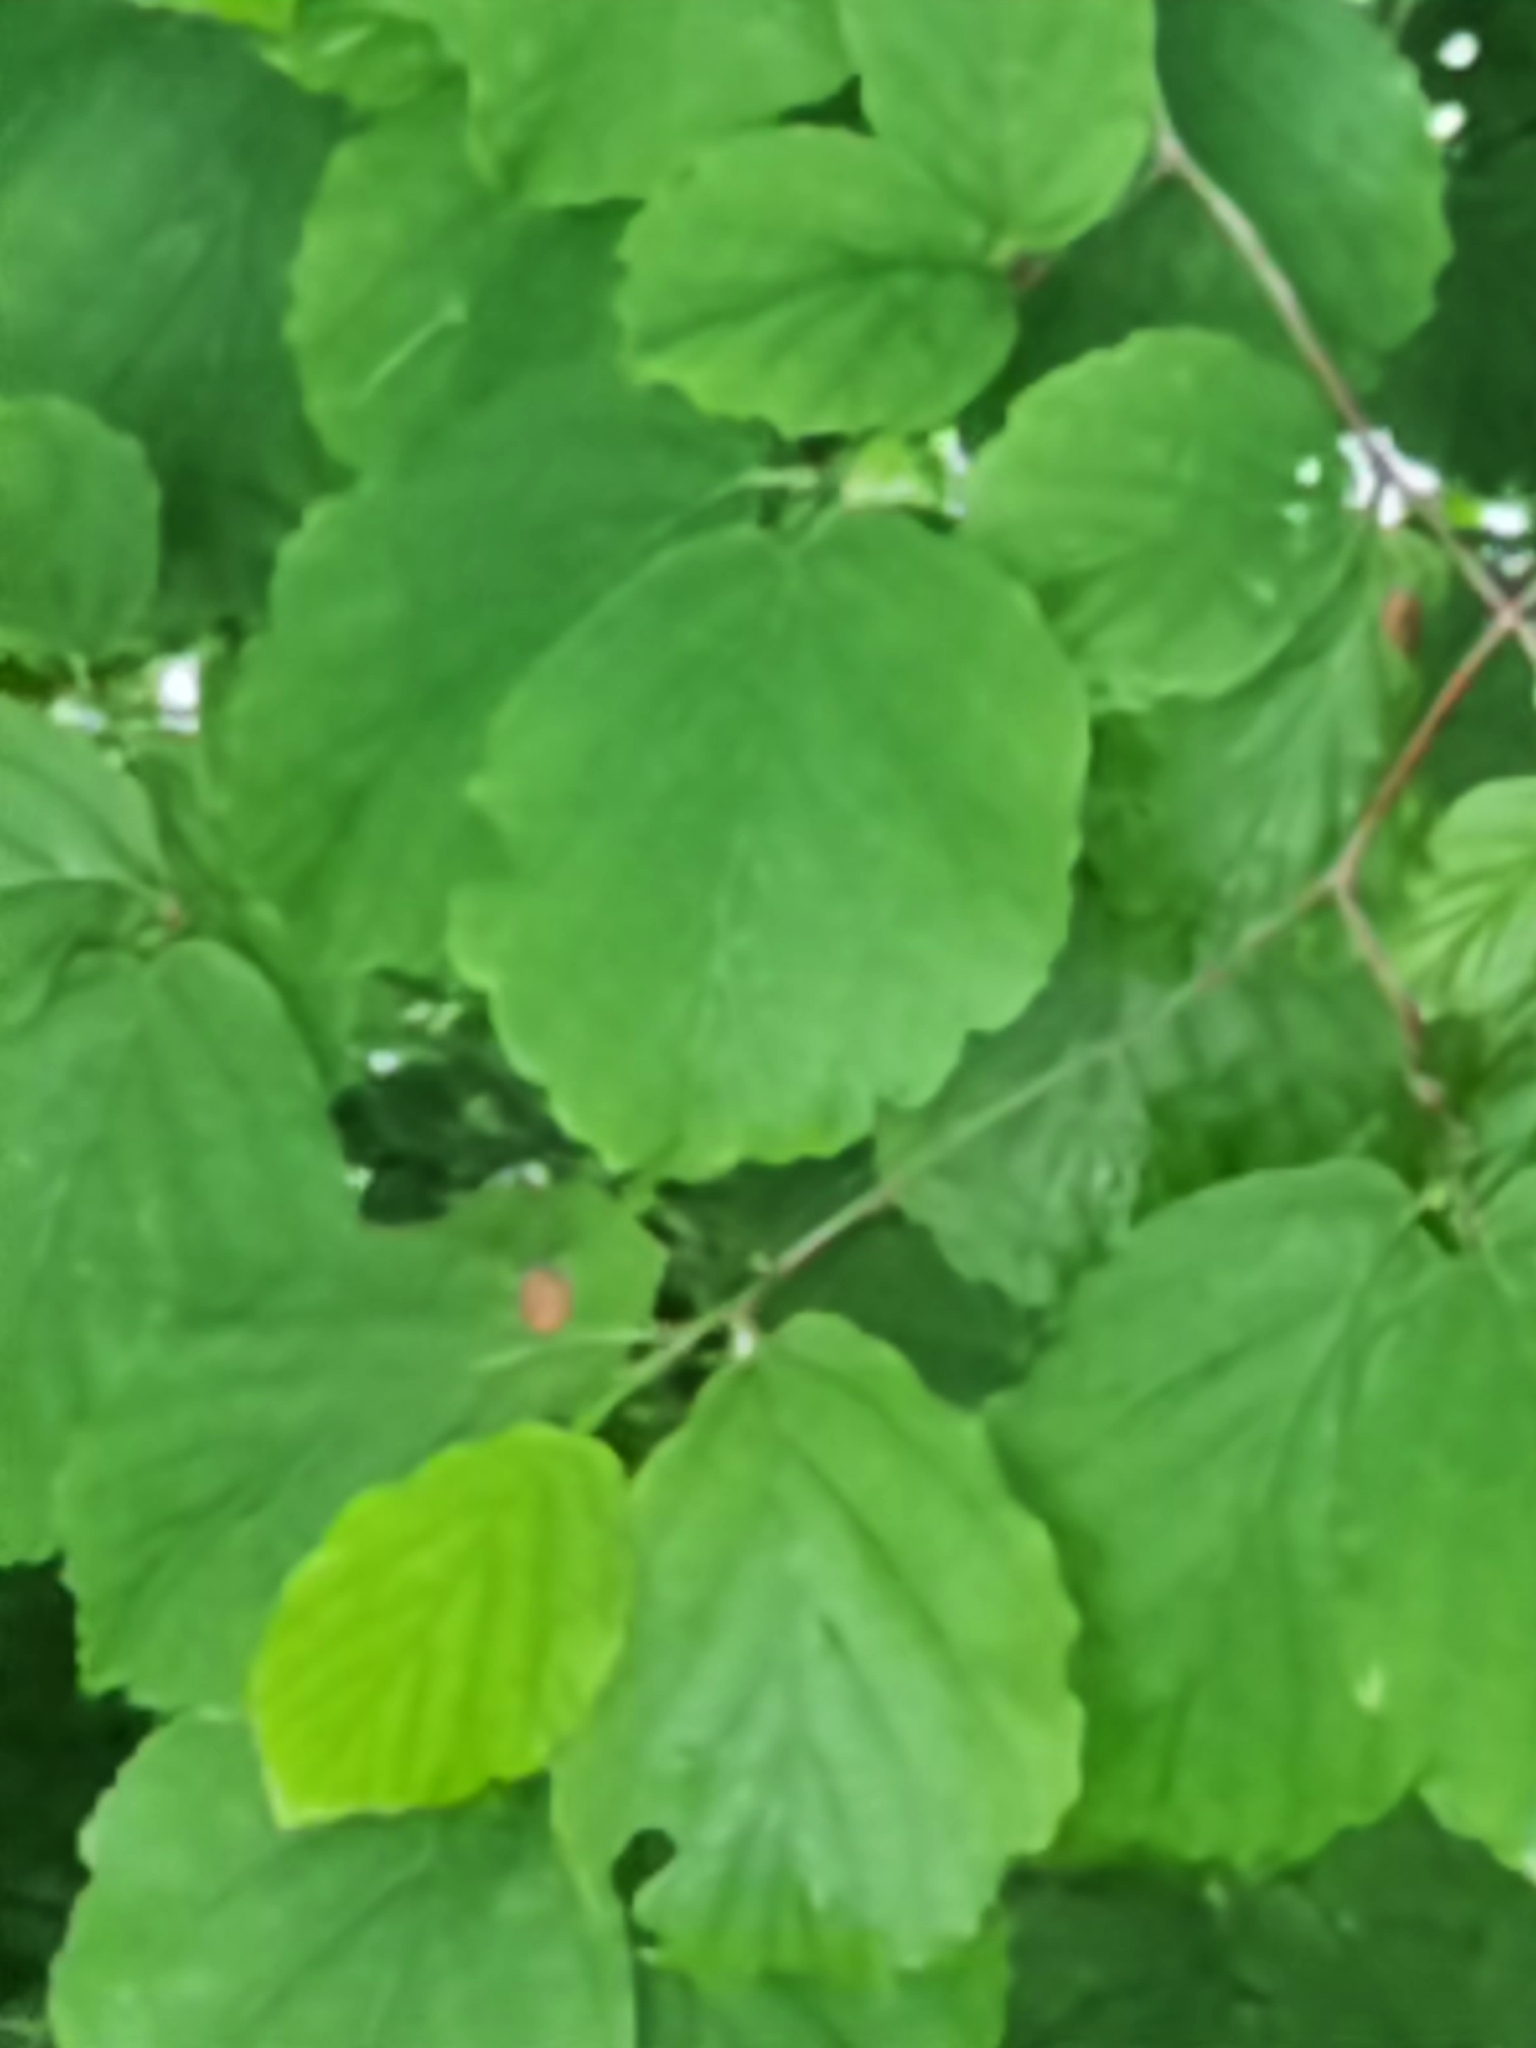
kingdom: Plantae
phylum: Tracheophyta
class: Magnoliopsida
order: Saxifragales
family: Hamamelidaceae
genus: Hamamelis
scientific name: Hamamelis virginiana
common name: Witch-hazel
